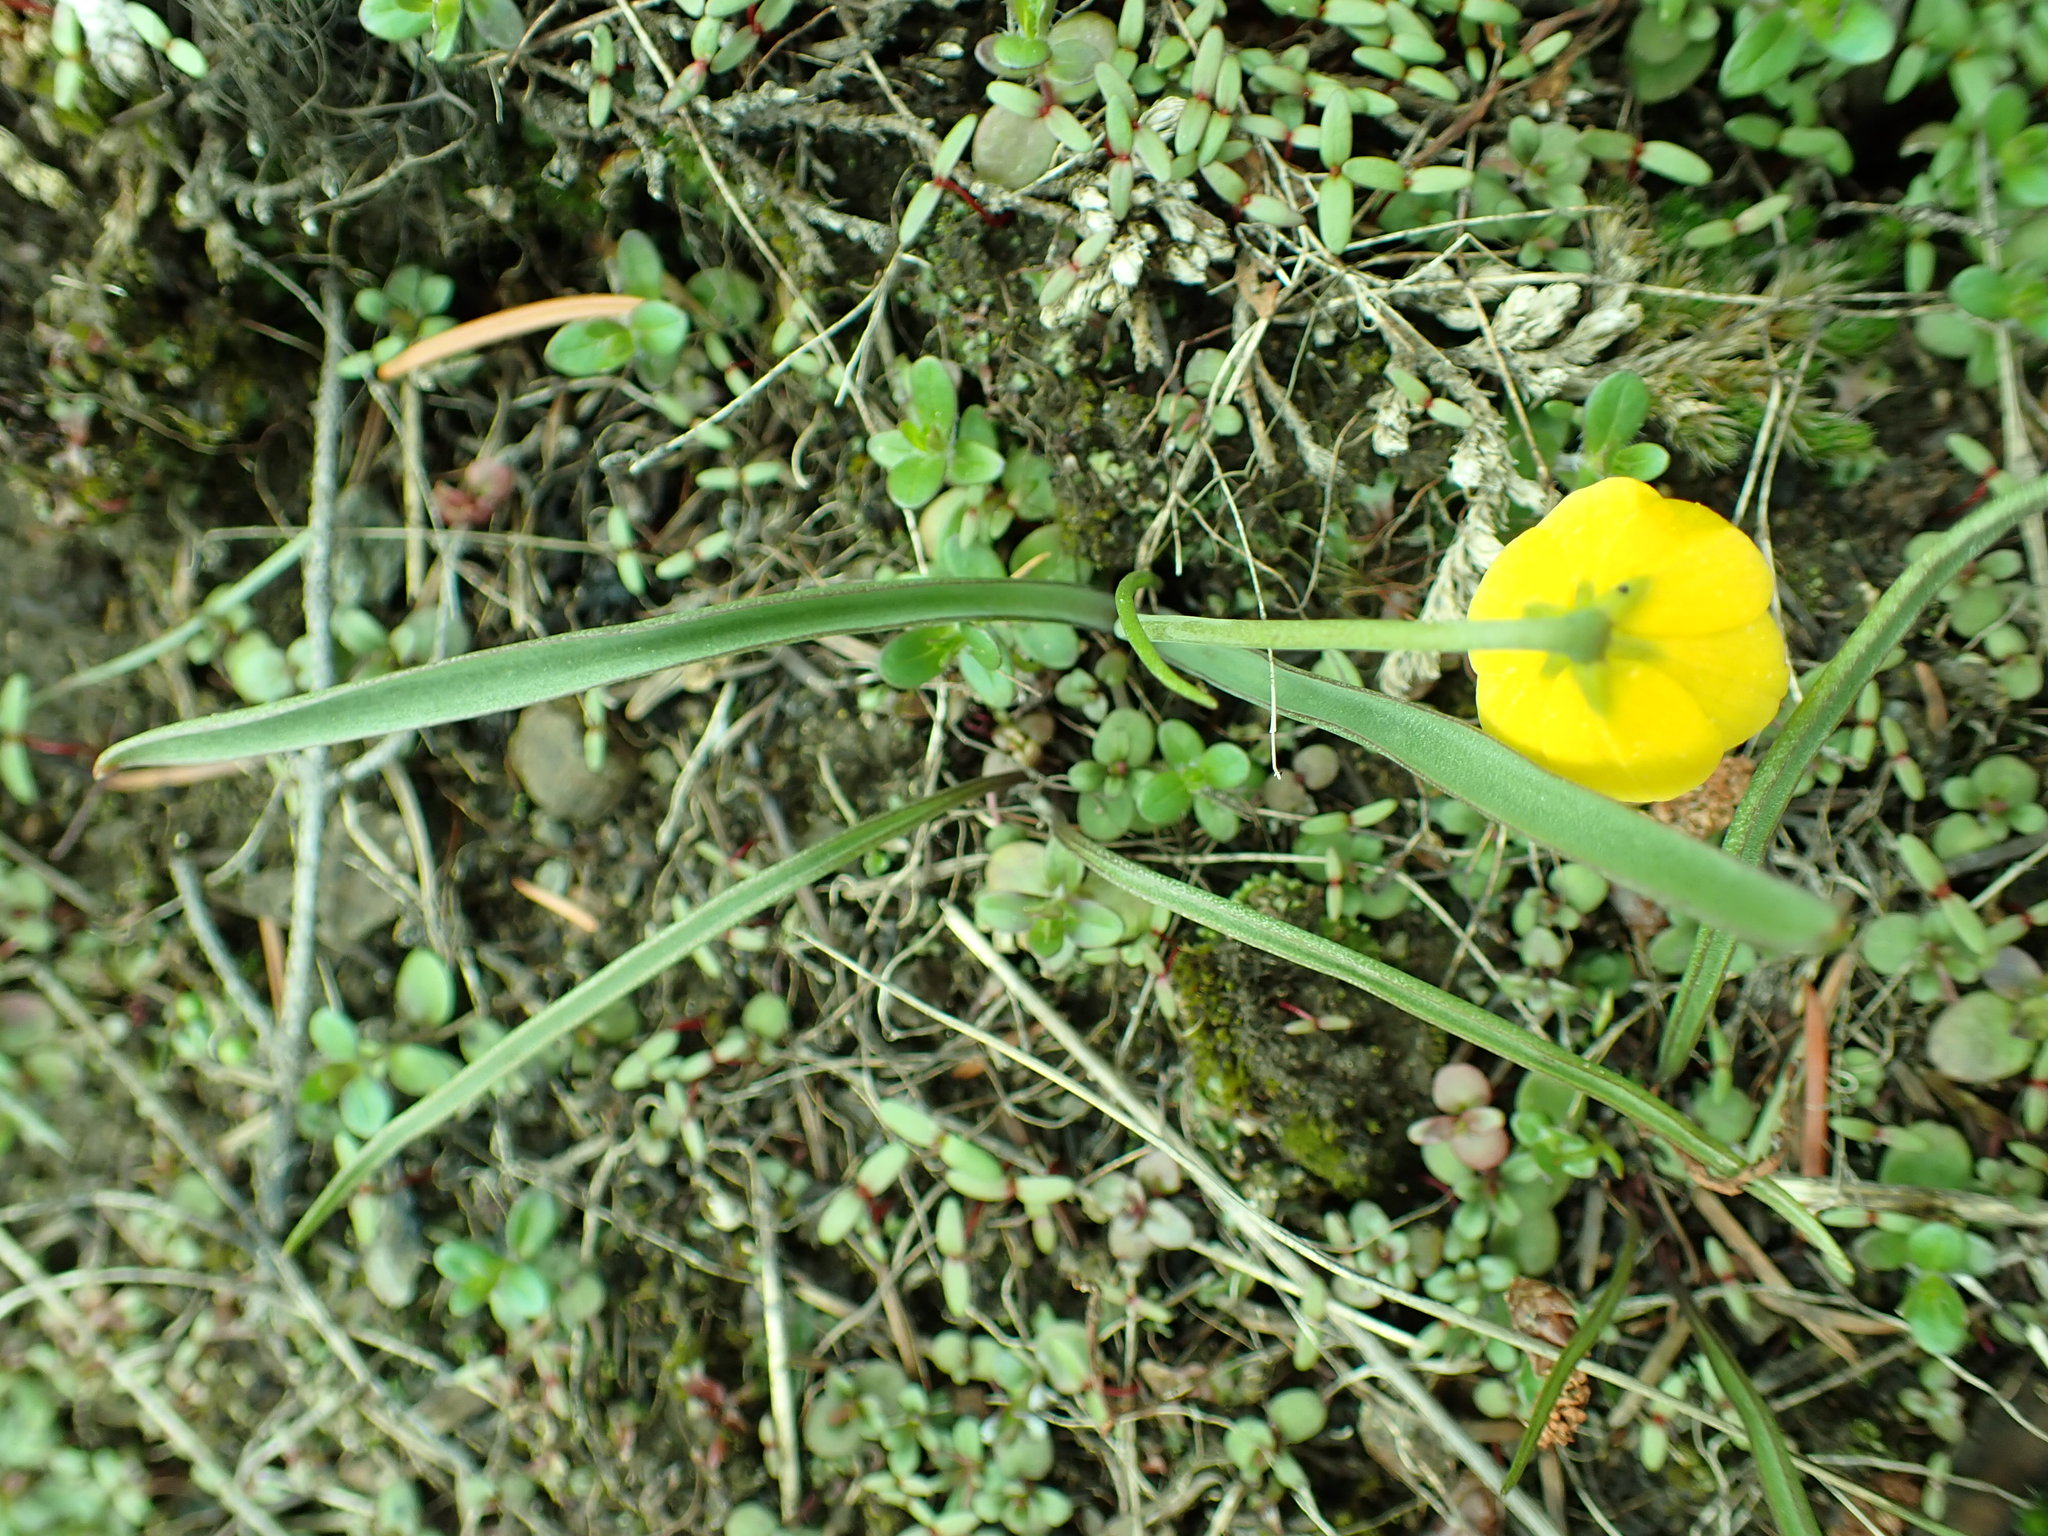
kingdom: Plantae
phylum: Tracheophyta
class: Liliopsida
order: Liliales
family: Liliaceae
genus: Fritillaria
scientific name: Fritillaria pudica
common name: Yellow fritillary
